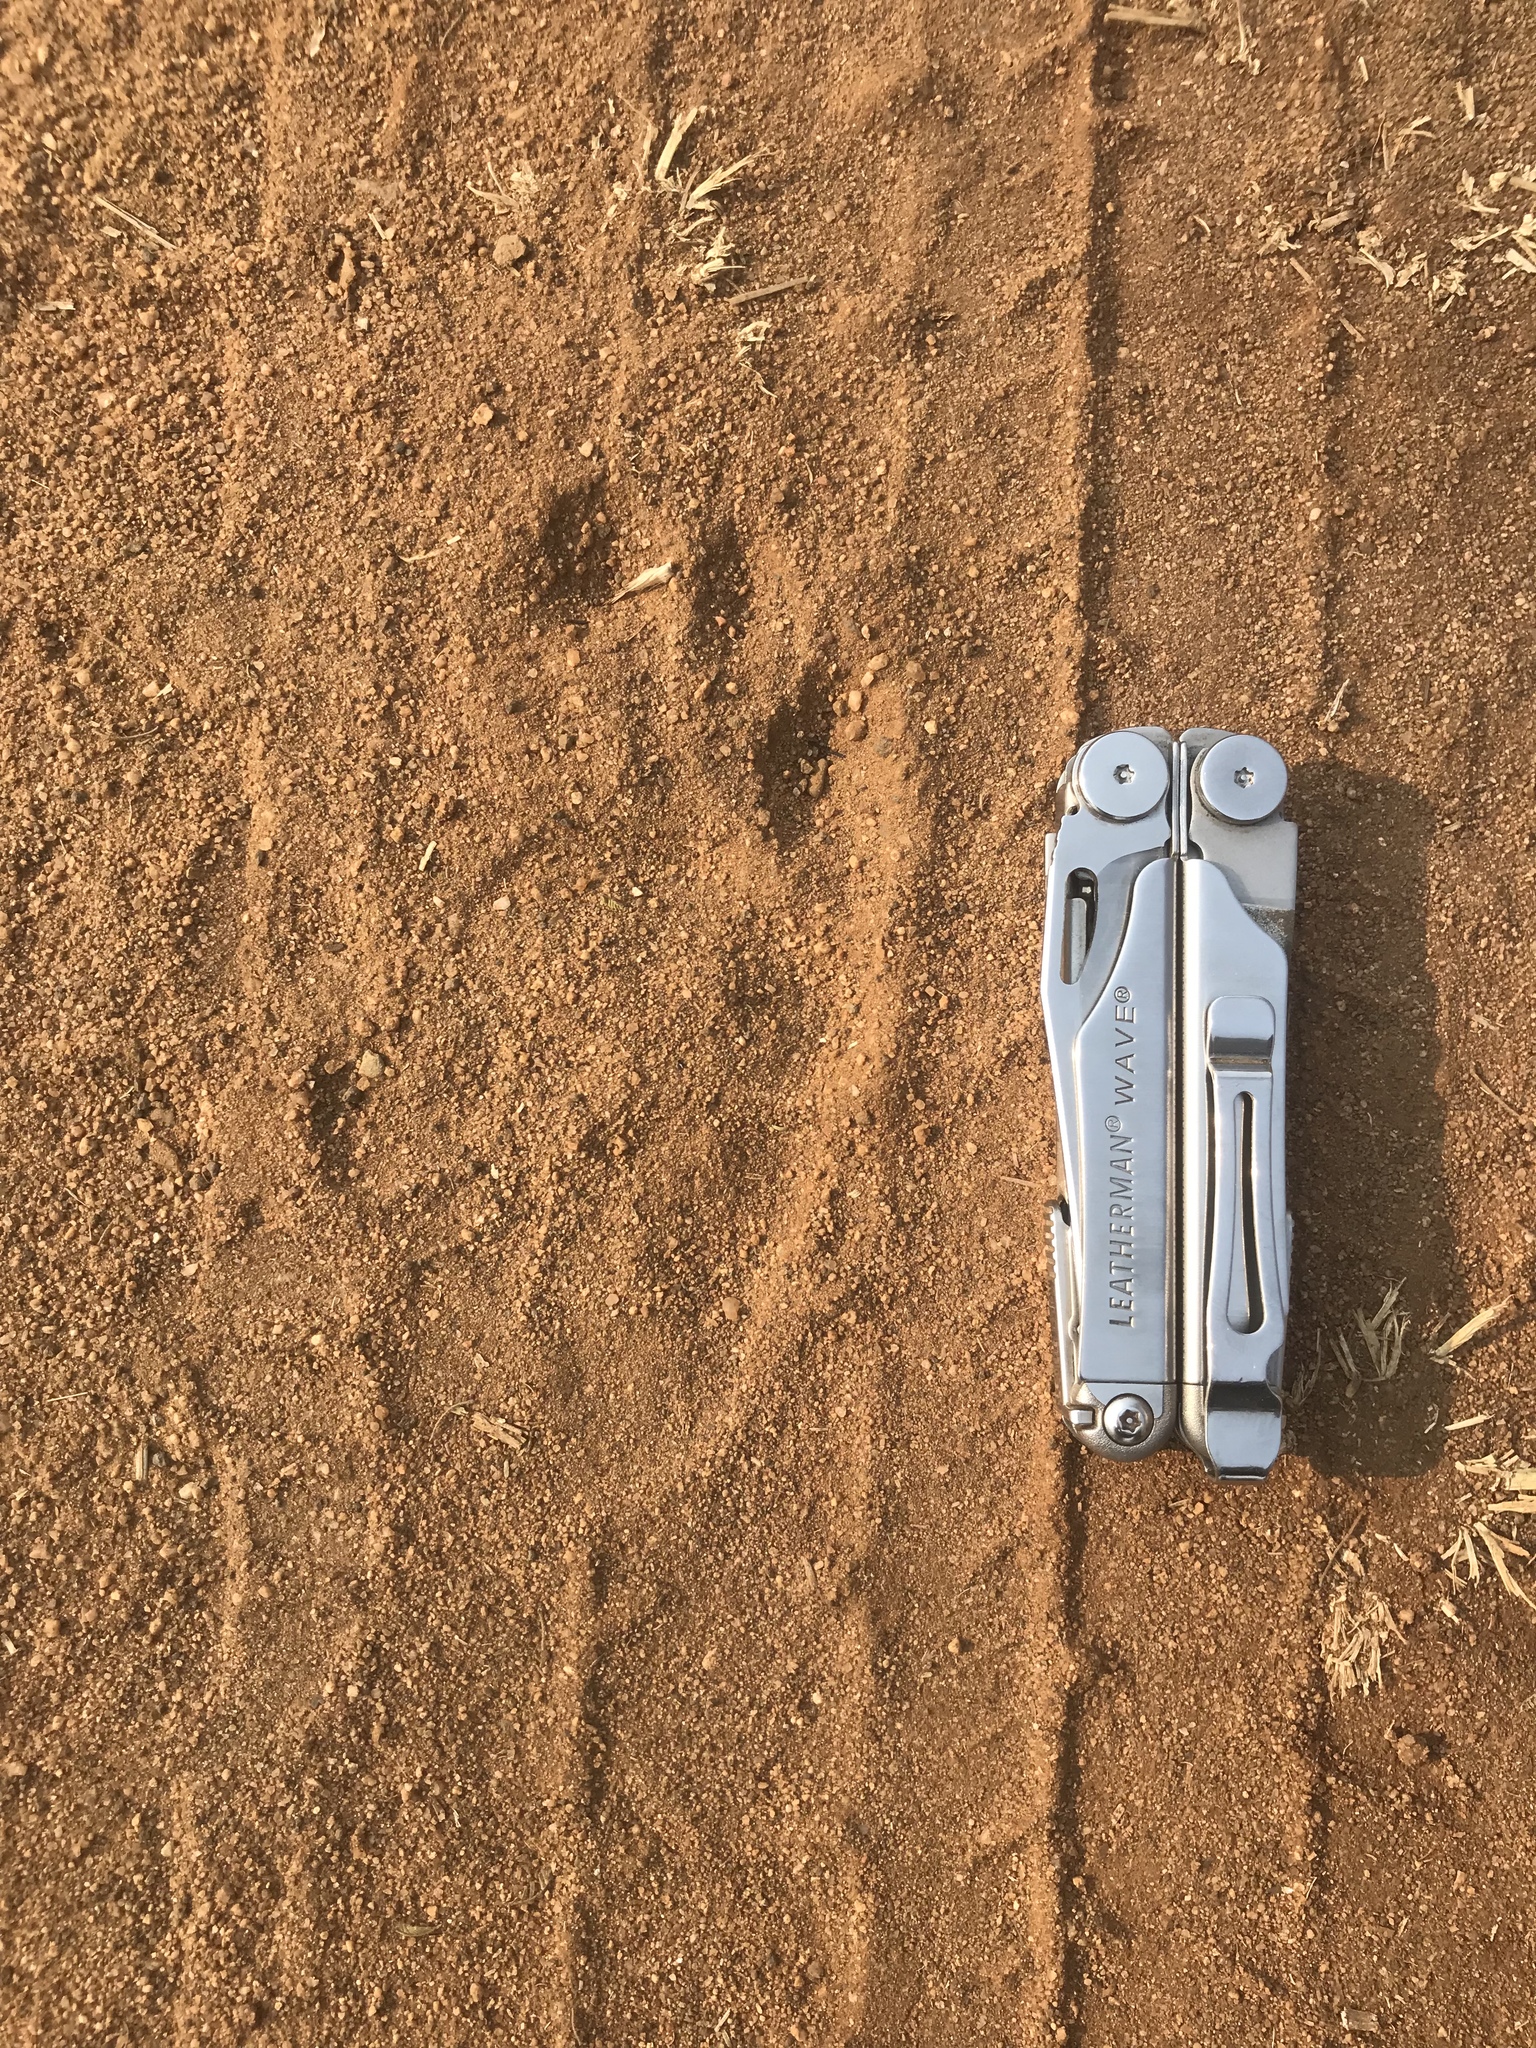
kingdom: Animalia
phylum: Chordata
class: Mammalia
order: Primates
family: Cercopithecidae
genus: Papio
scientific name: Papio ursinus
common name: Chacma baboon
